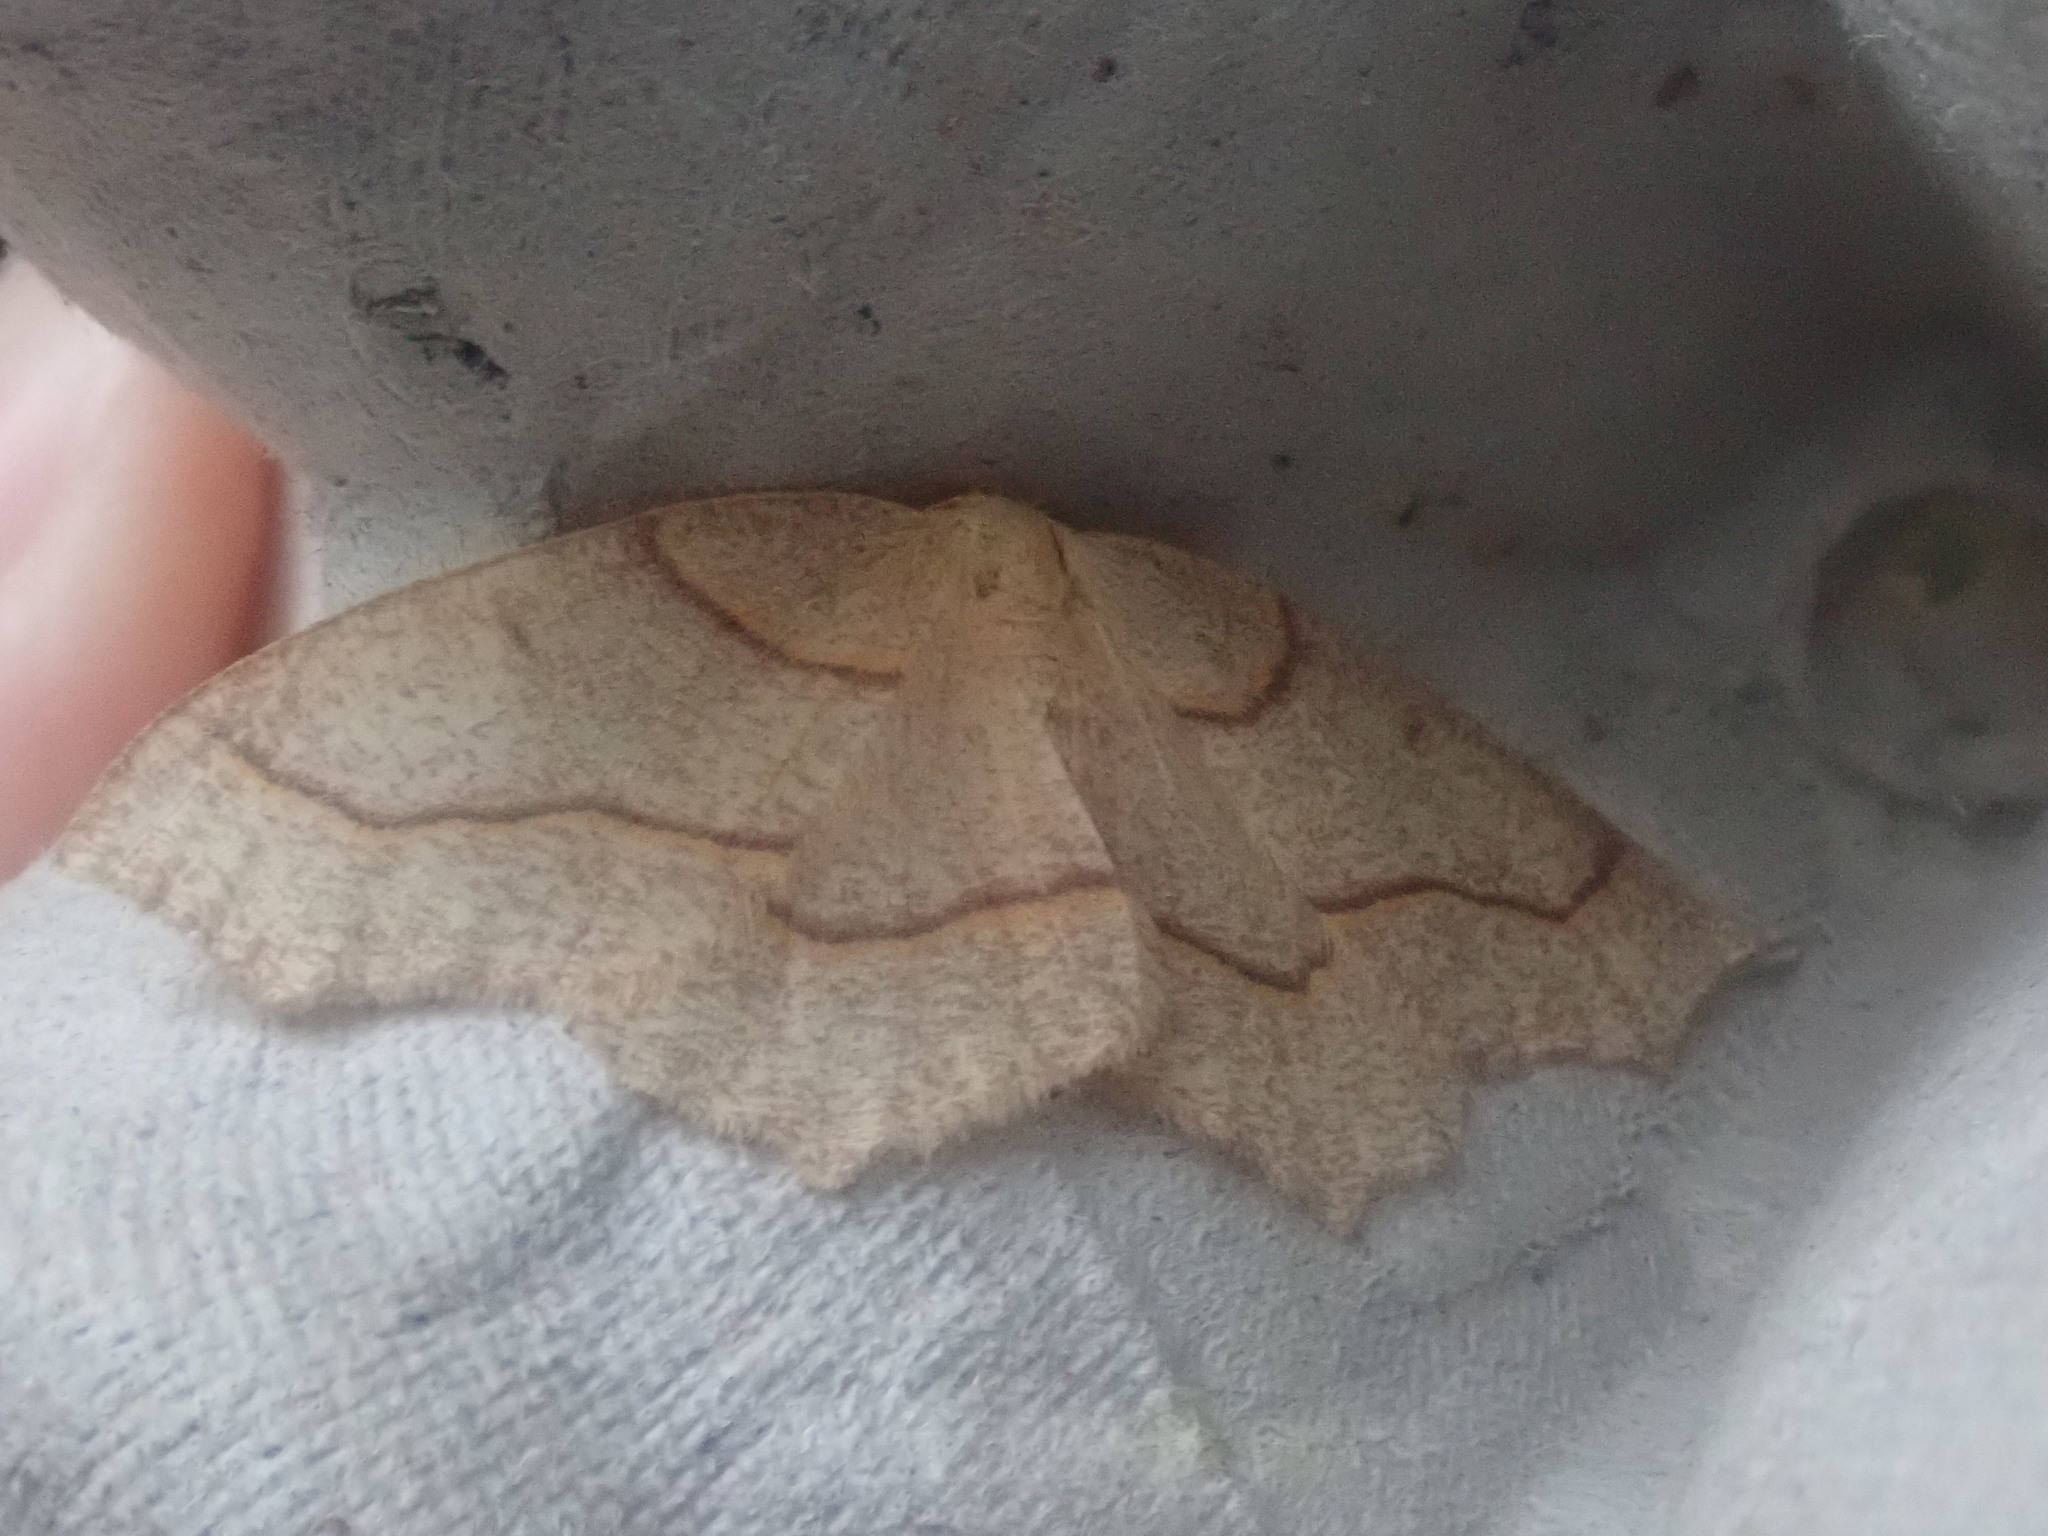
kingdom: Animalia
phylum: Arthropoda
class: Insecta
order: Lepidoptera
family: Geometridae
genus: Lambdina
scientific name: Lambdina fiscellaria
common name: Hemlock looper
